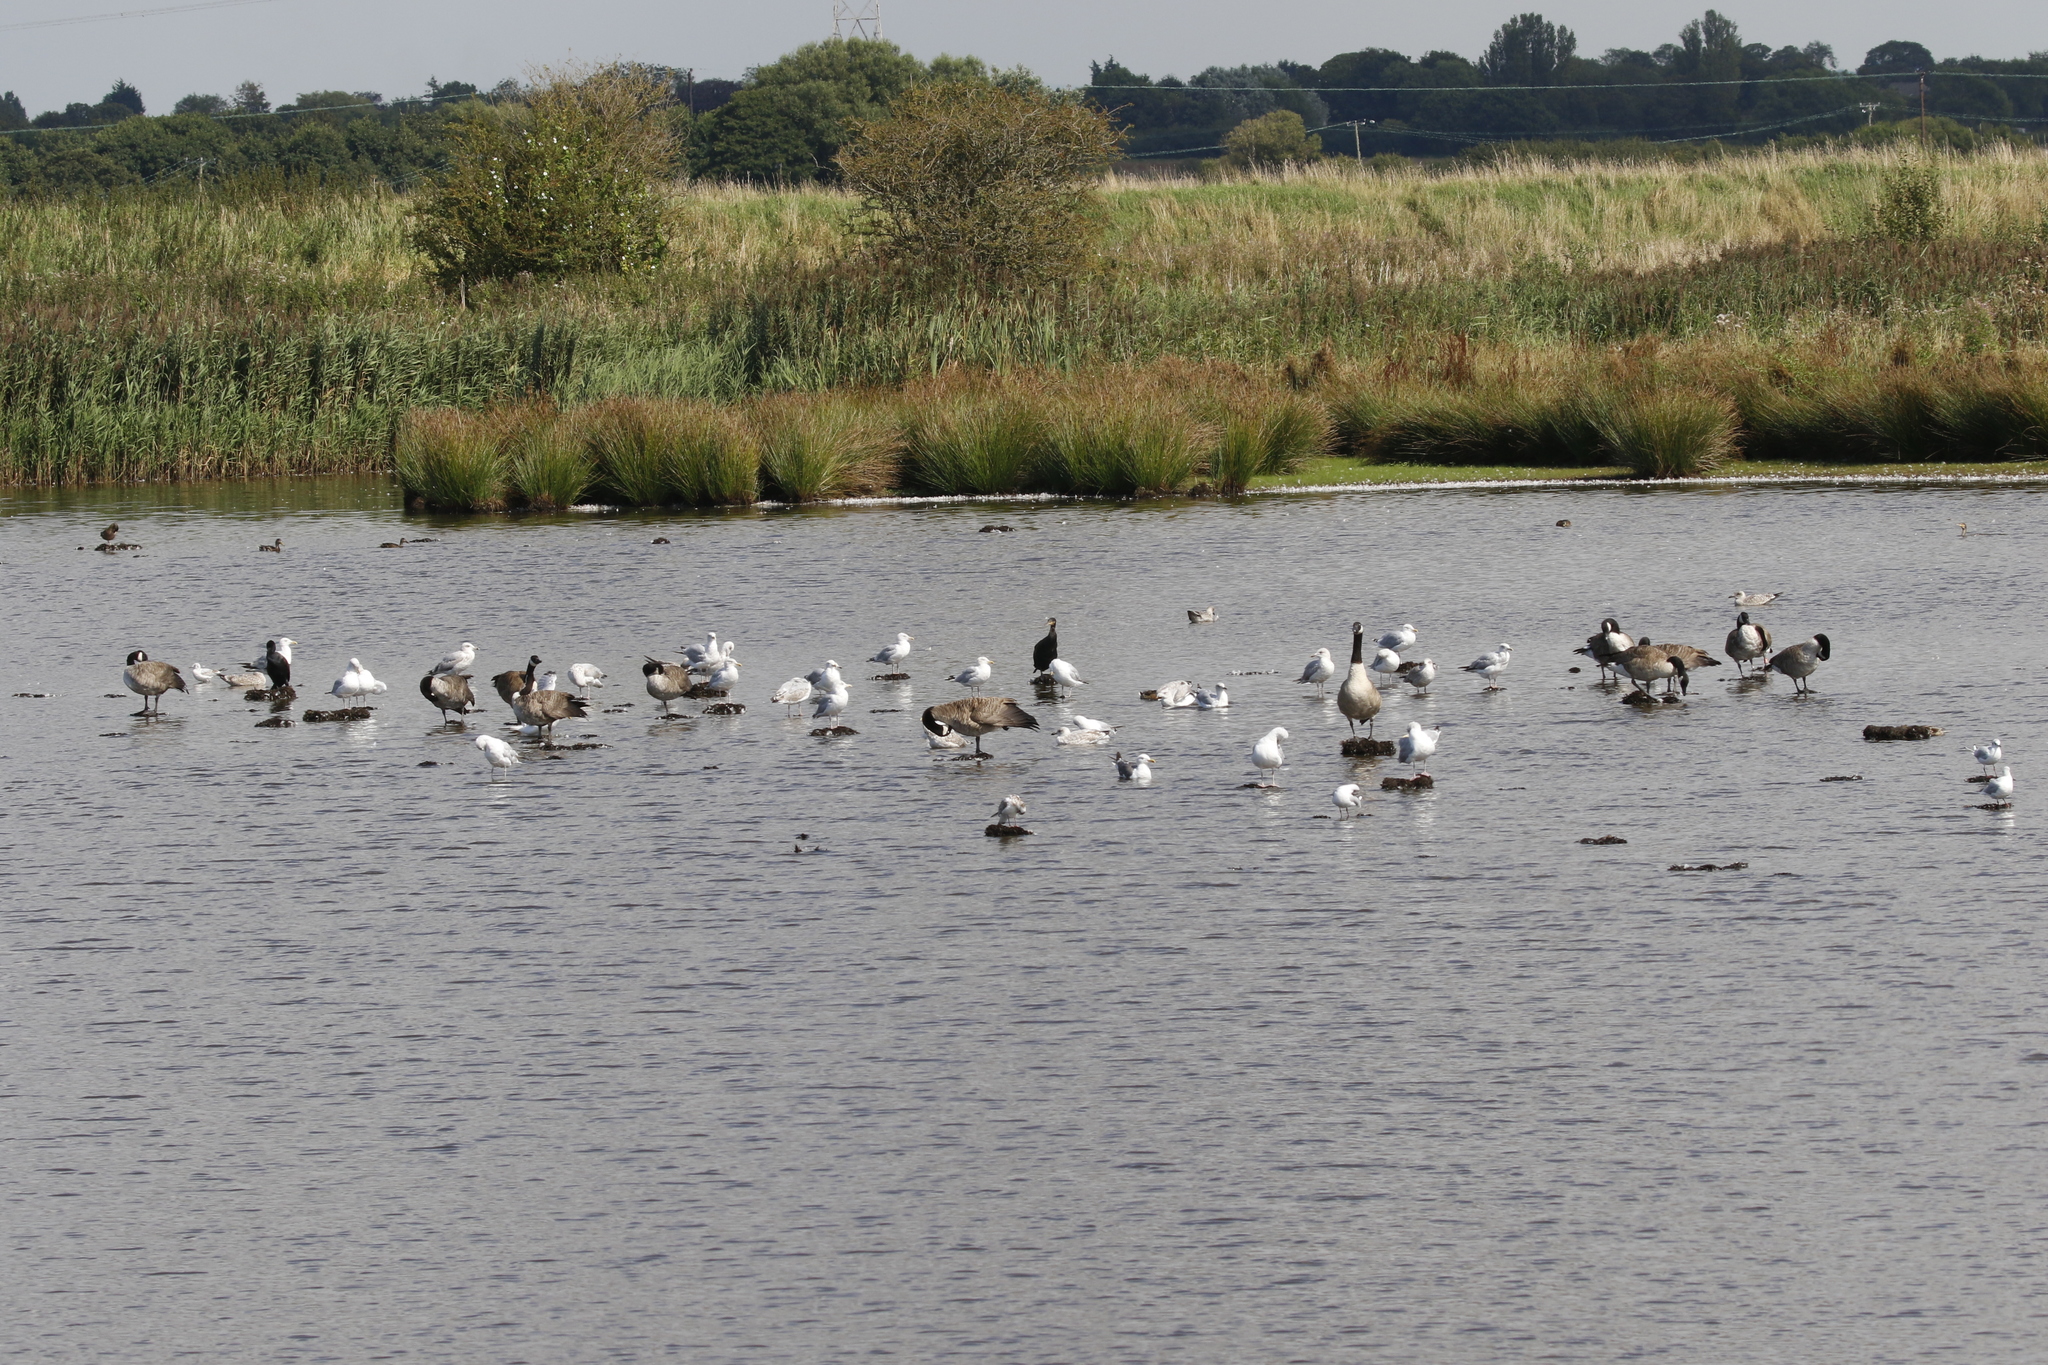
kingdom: Animalia
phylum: Chordata
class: Aves
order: Suliformes
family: Phalacrocoracidae
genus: Phalacrocorax
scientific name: Phalacrocorax carbo
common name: Great cormorant
